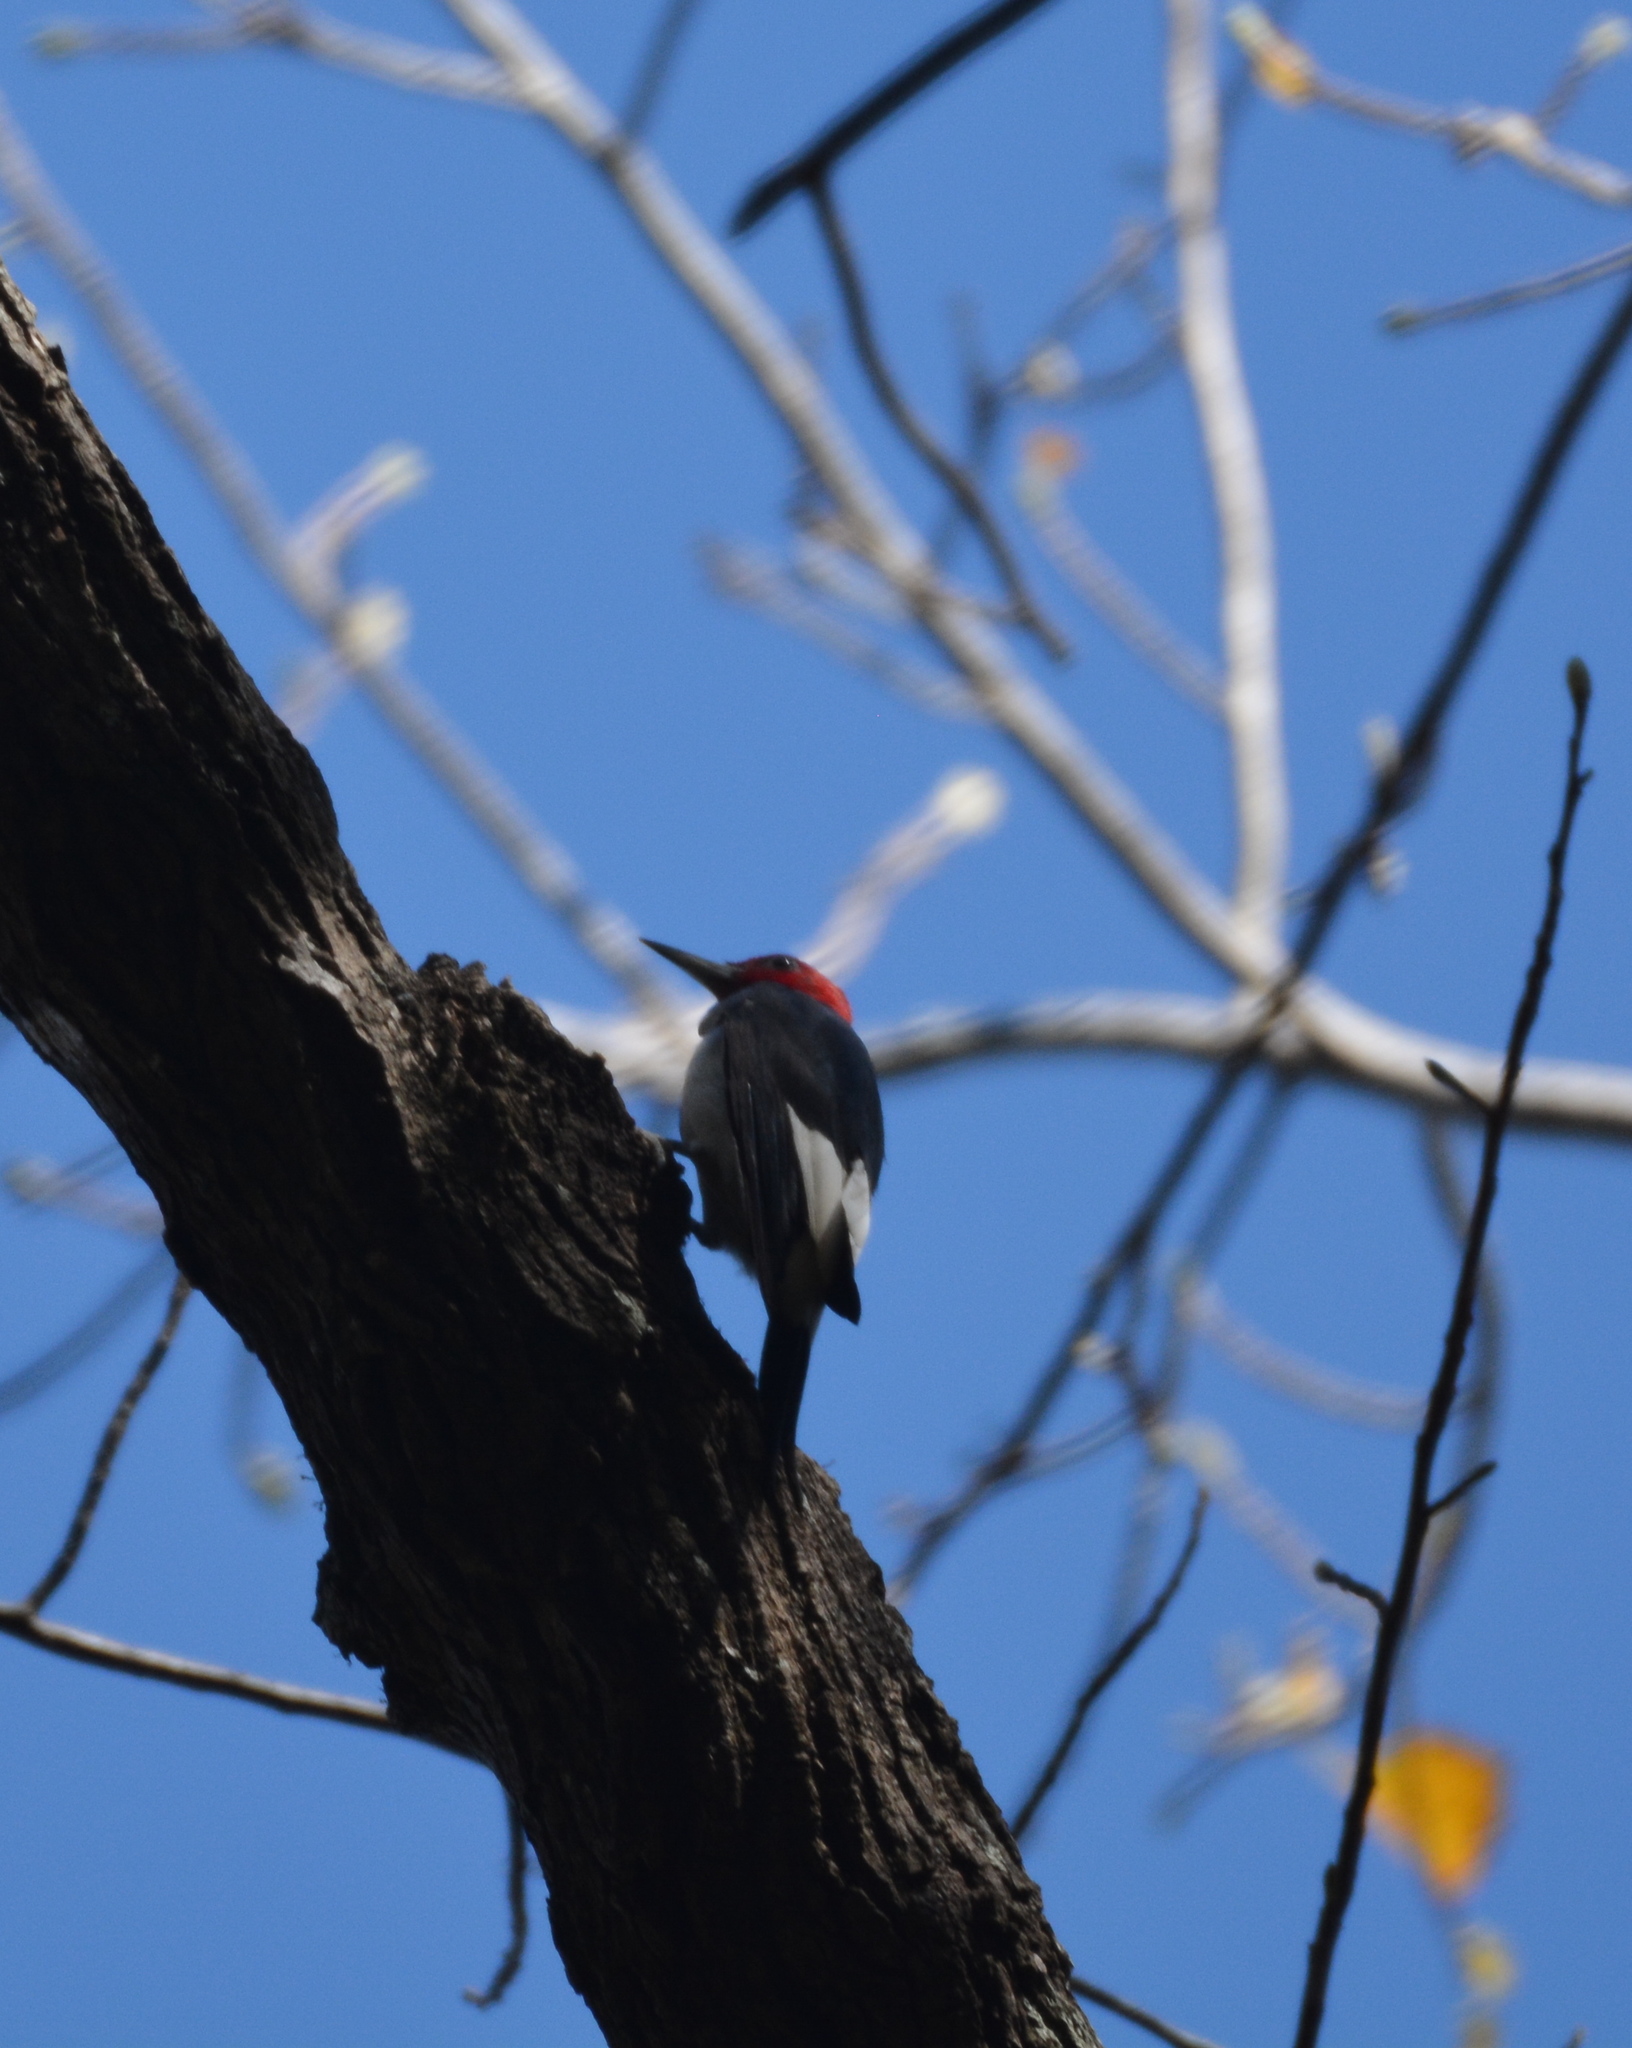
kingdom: Animalia
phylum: Chordata
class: Aves
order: Piciformes
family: Picidae
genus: Melanerpes
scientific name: Melanerpes erythrocephalus
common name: Red-headed woodpecker
